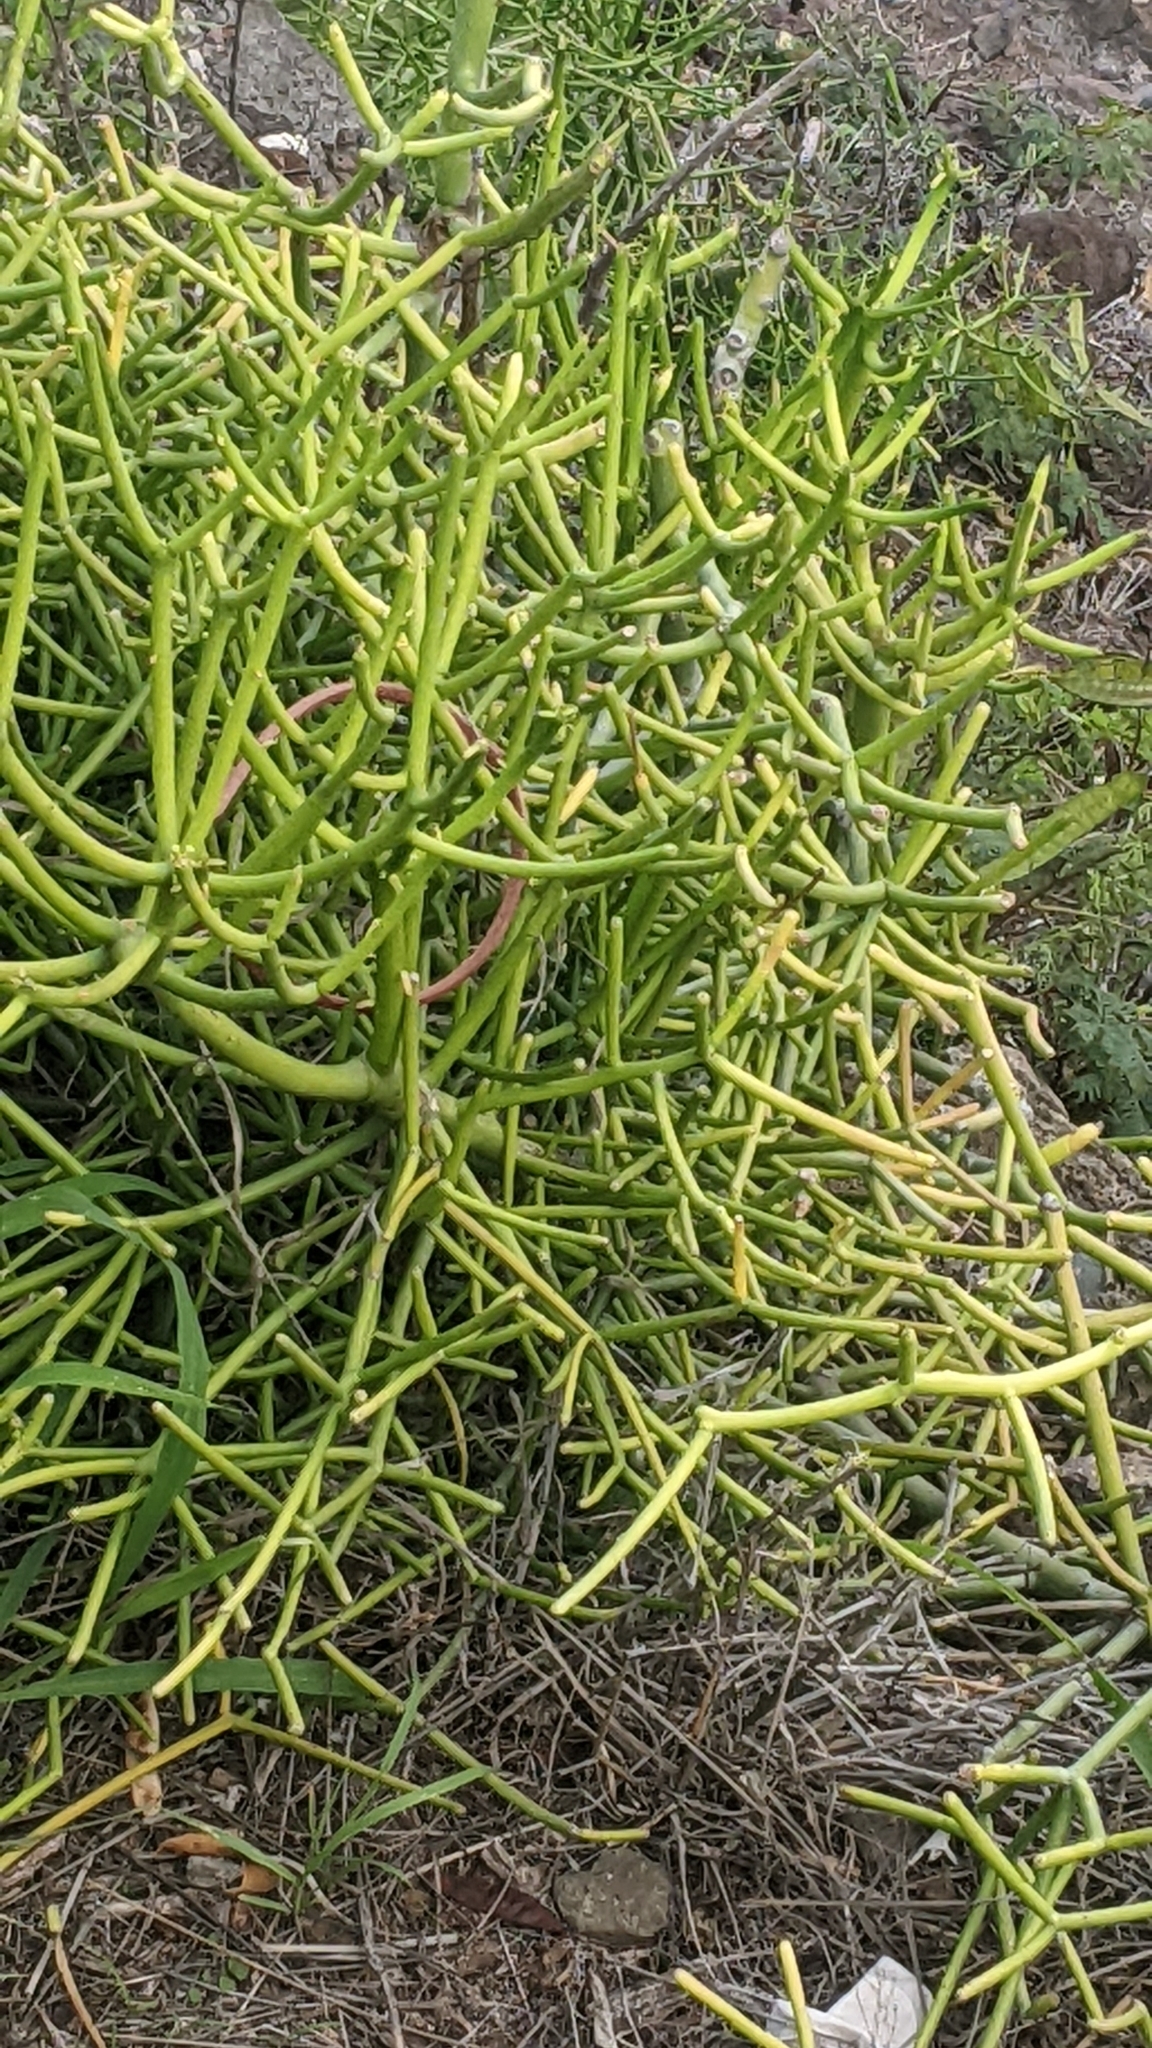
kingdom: Plantae
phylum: Tracheophyta
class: Magnoliopsida
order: Malpighiales
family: Euphorbiaceae
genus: Euphorbia
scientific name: Euphorbia tirucalli
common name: Indiantree spurge
